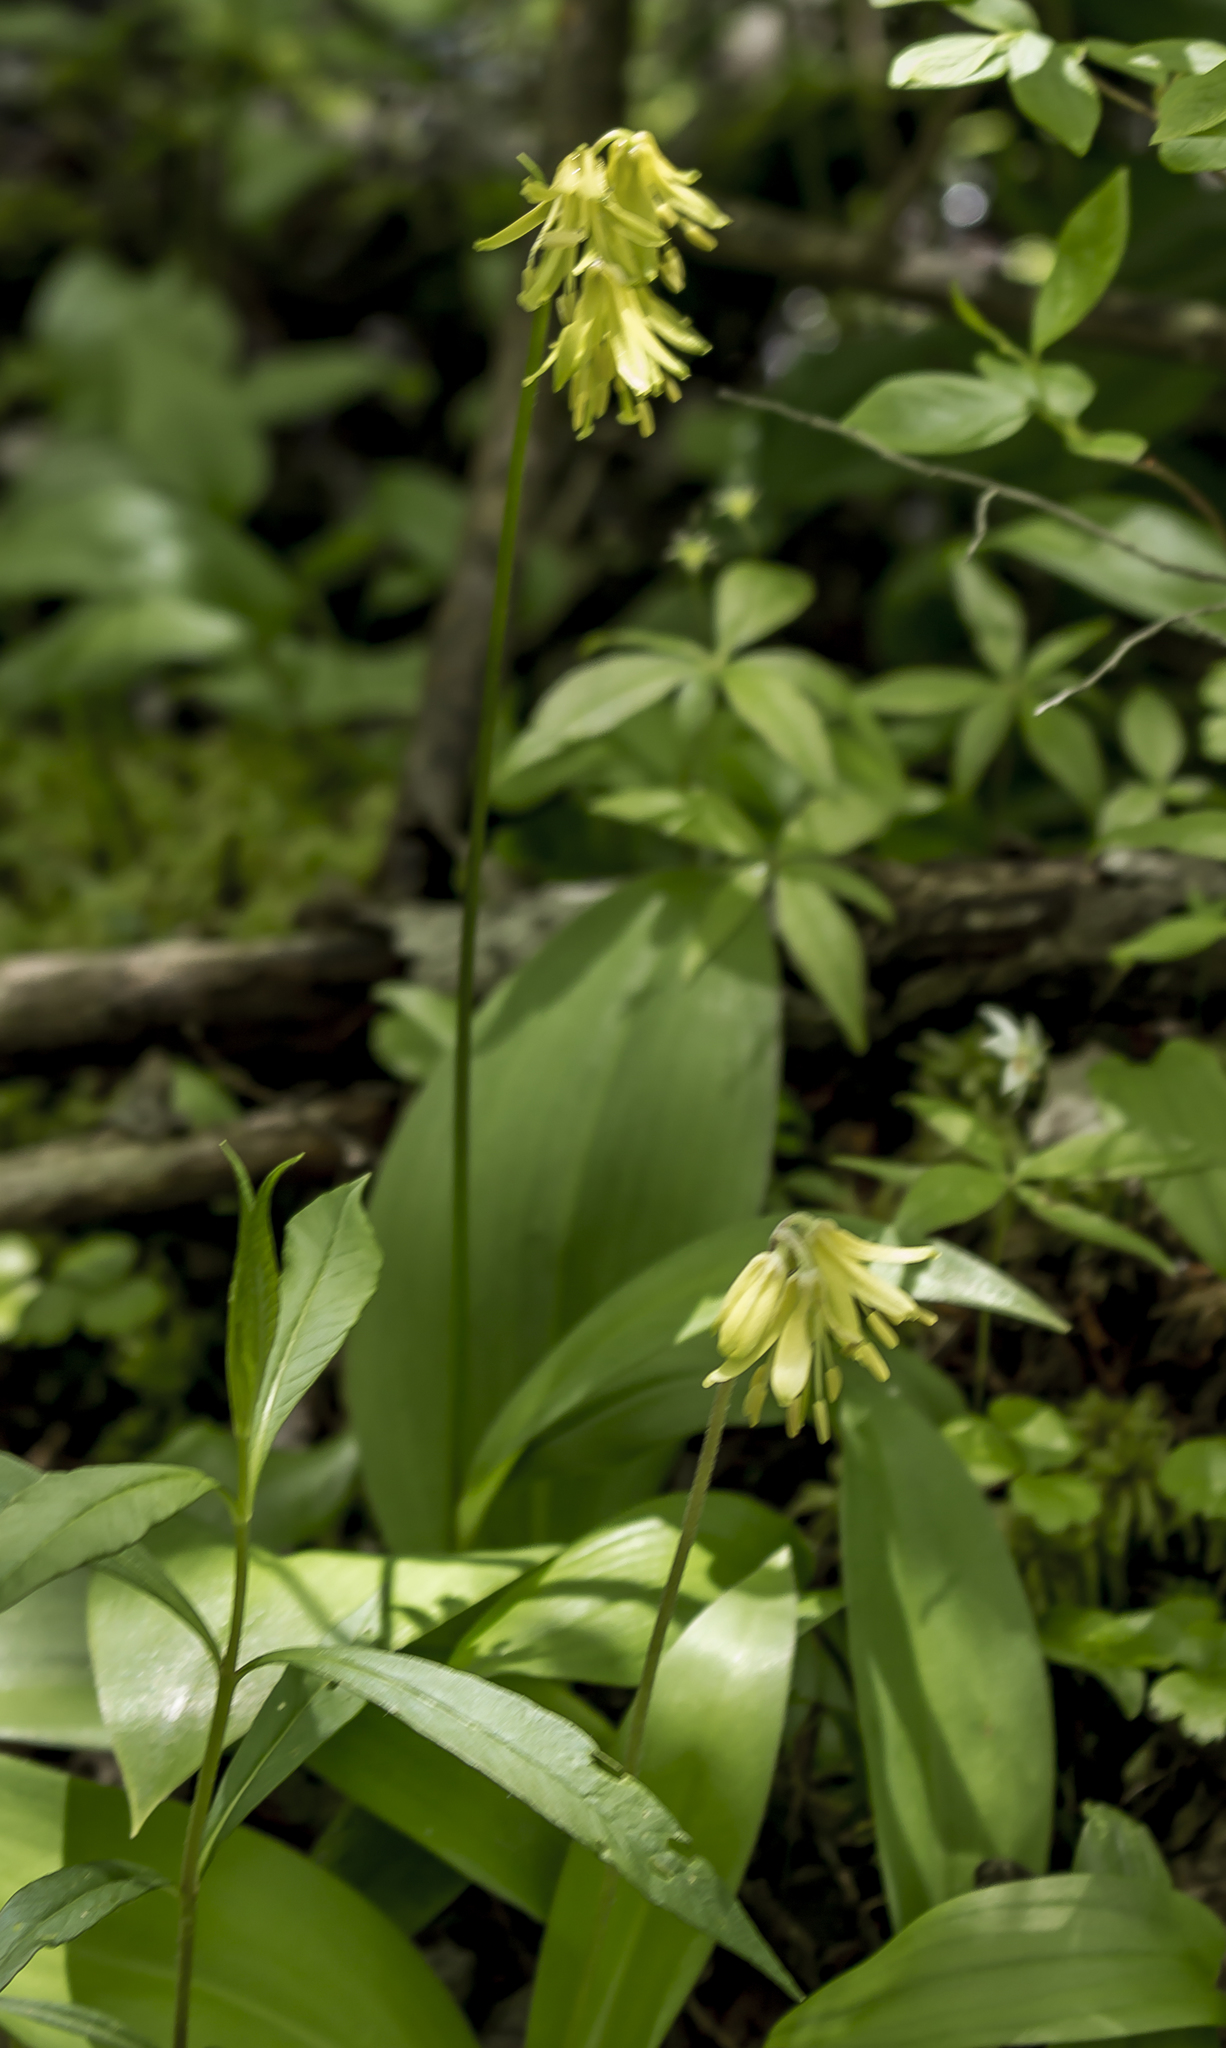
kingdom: Plantae
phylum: Tracheophyta
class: Liliopsida
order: Liliales
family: Liliaceae
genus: Clintonia
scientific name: Clintonia borealis
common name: Yellow clintonia
